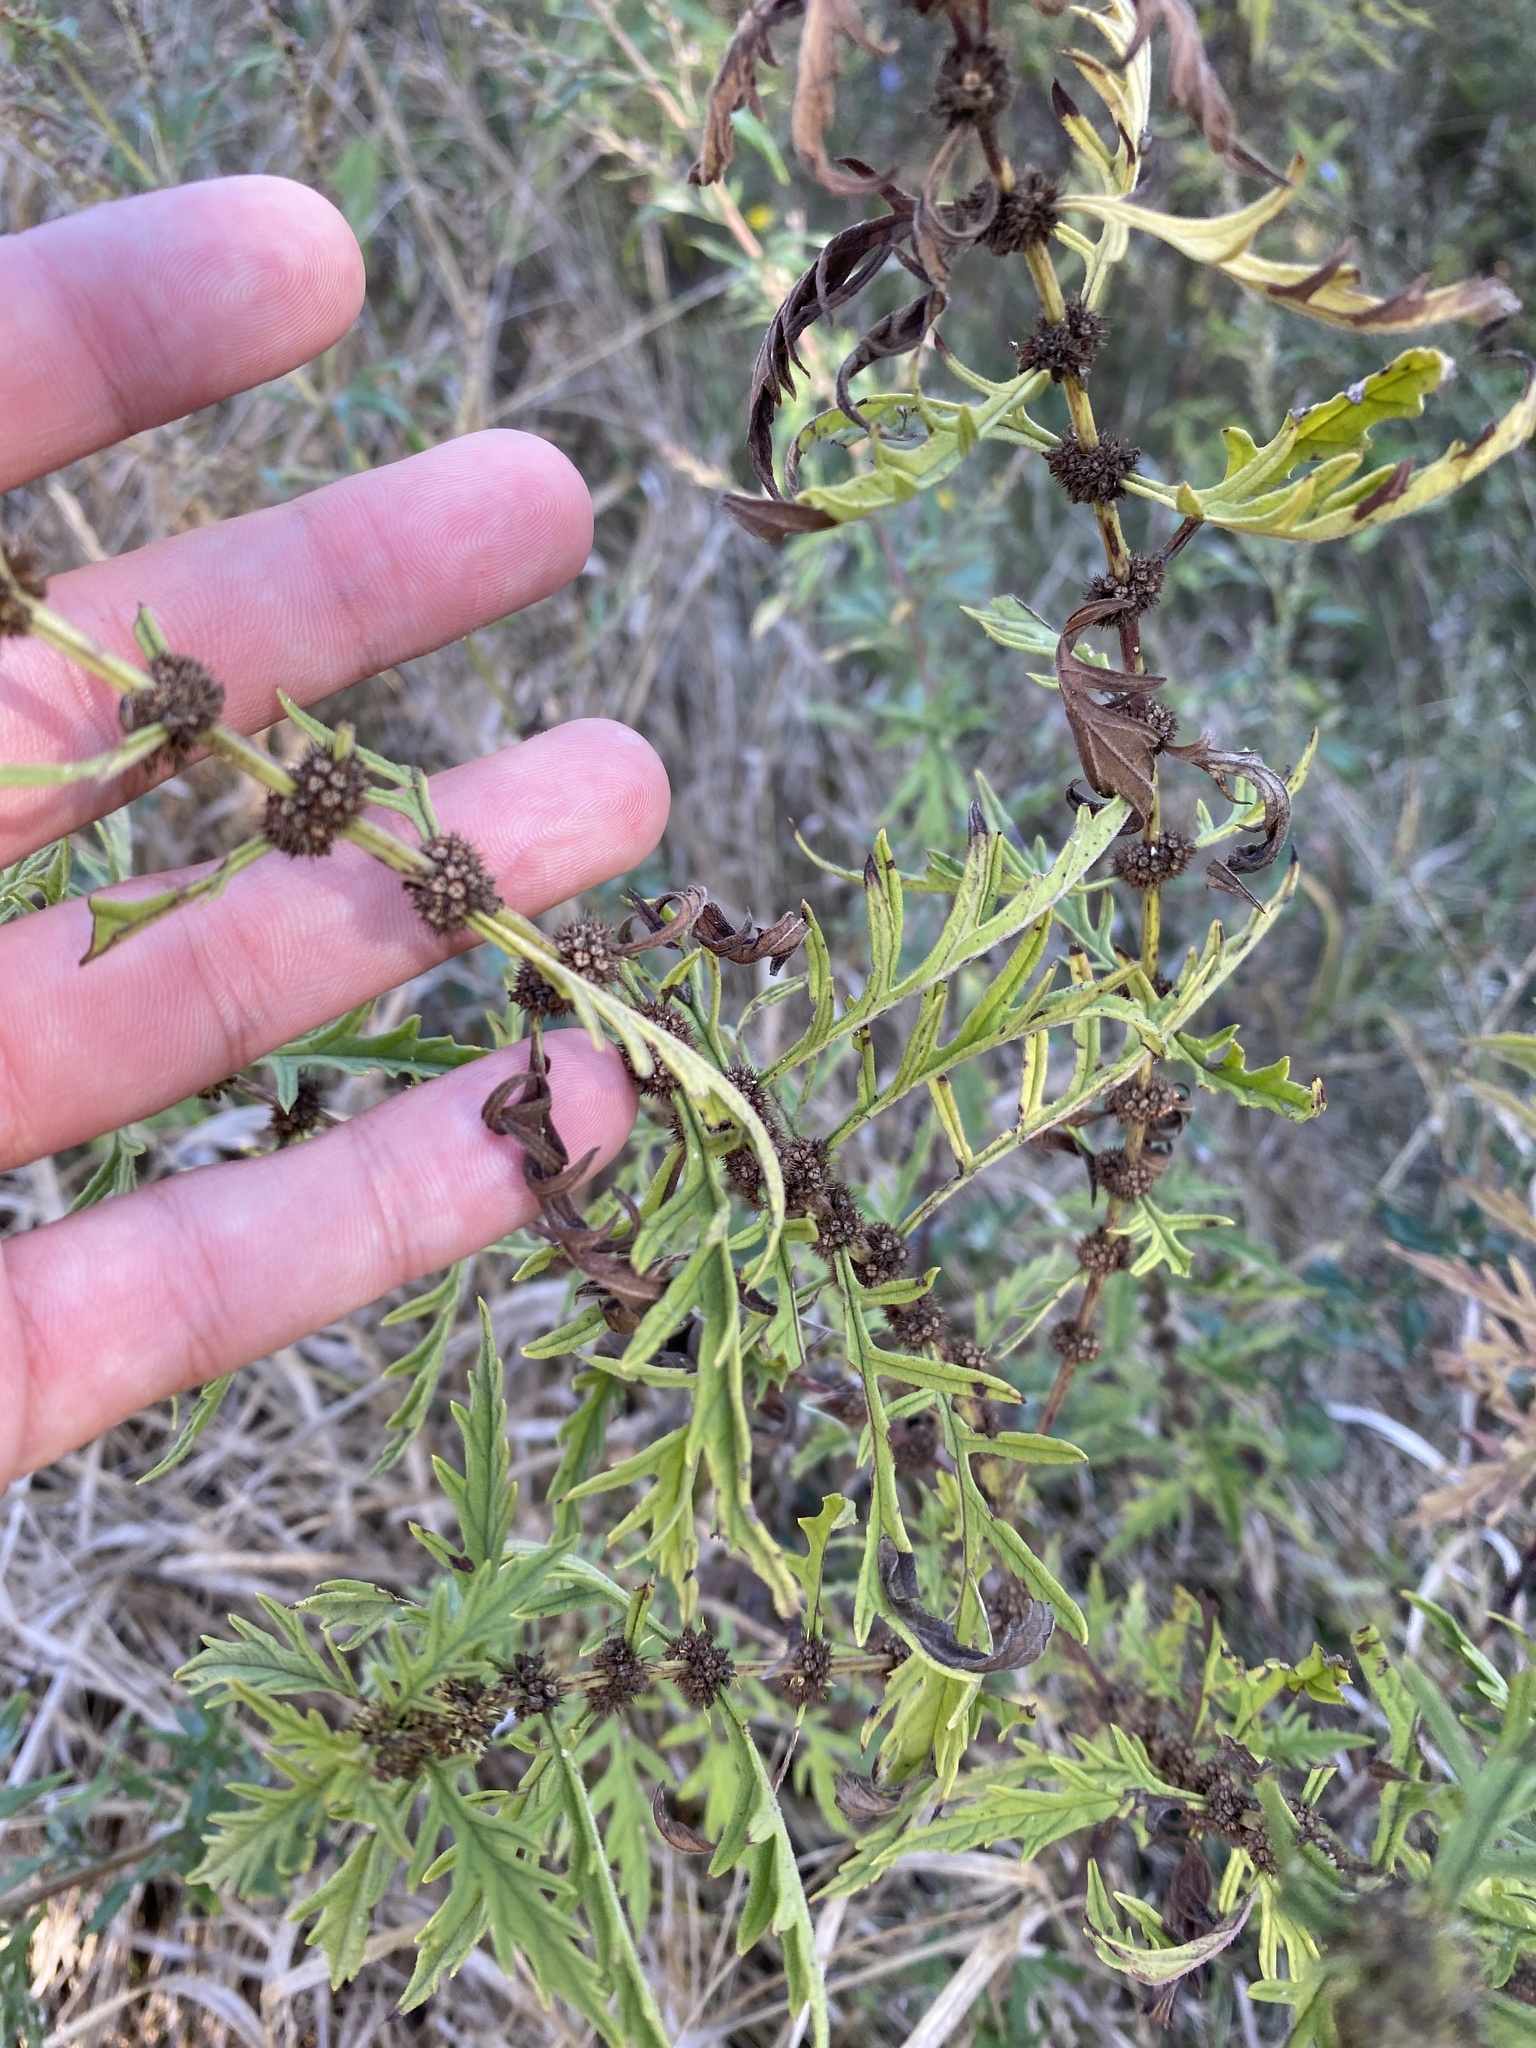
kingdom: Plantae
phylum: Tracheophyta
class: Magnoliopsida
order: Lamiales
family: Lamiaceae
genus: Lycopus
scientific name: Lycopus exaltatus
